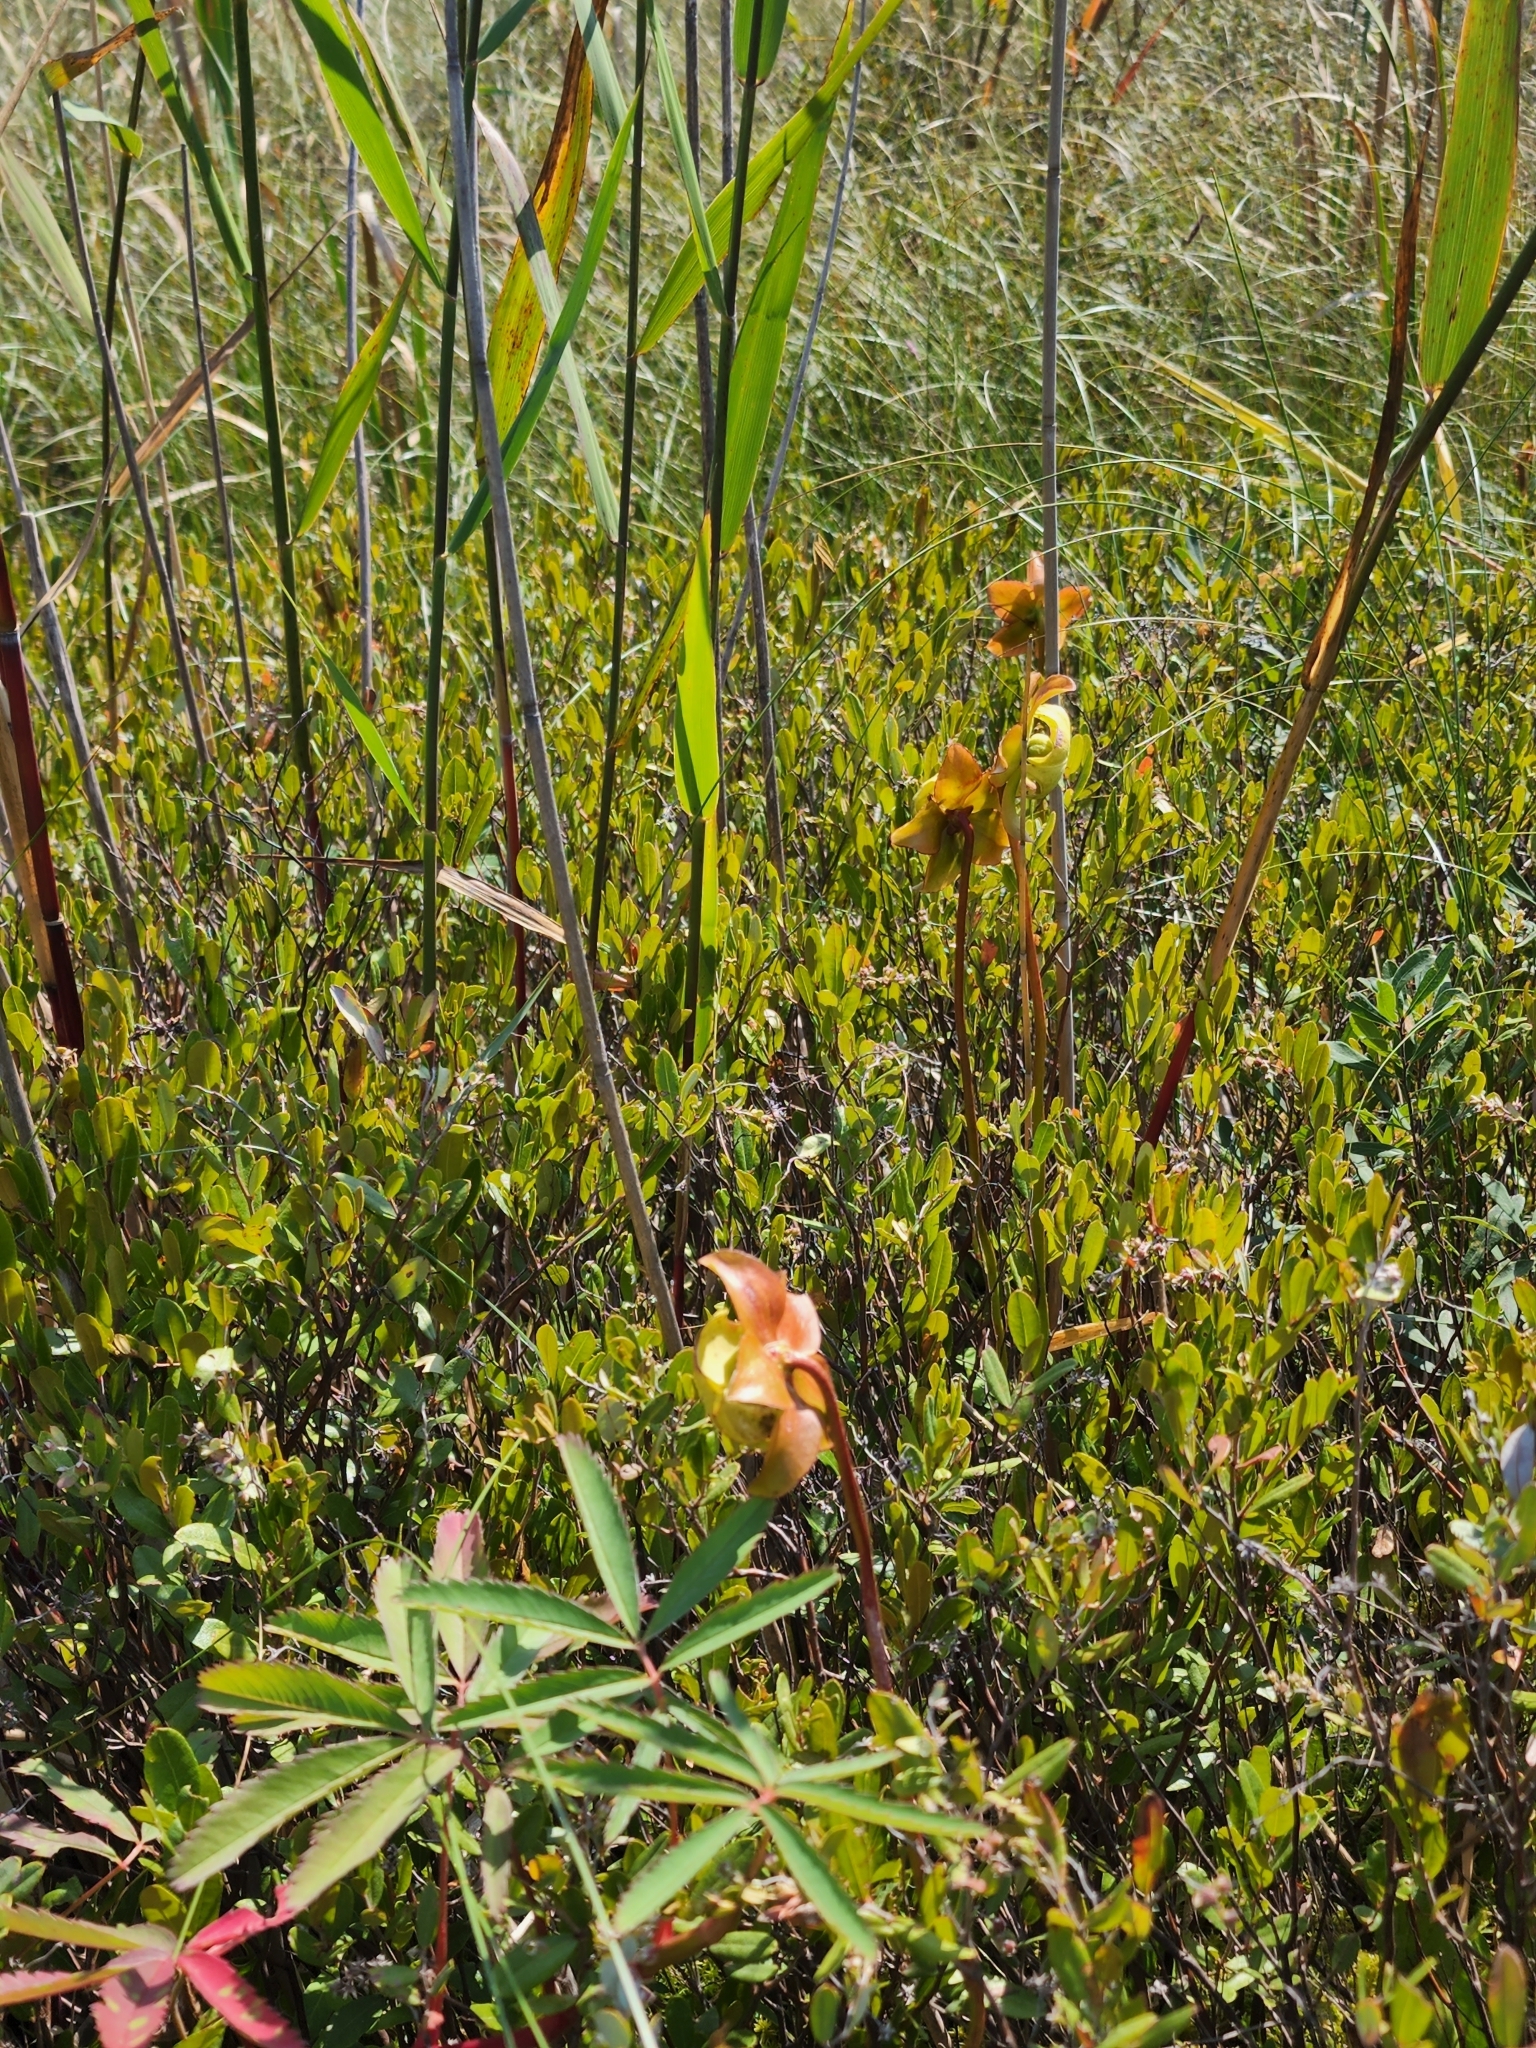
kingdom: Plantae
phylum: Tracheophyta
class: Magnoliopsida
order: Ericales
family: Sarraceniaceae
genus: Sarracenia
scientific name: Sarracenia purpurea
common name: Pitcherplant
